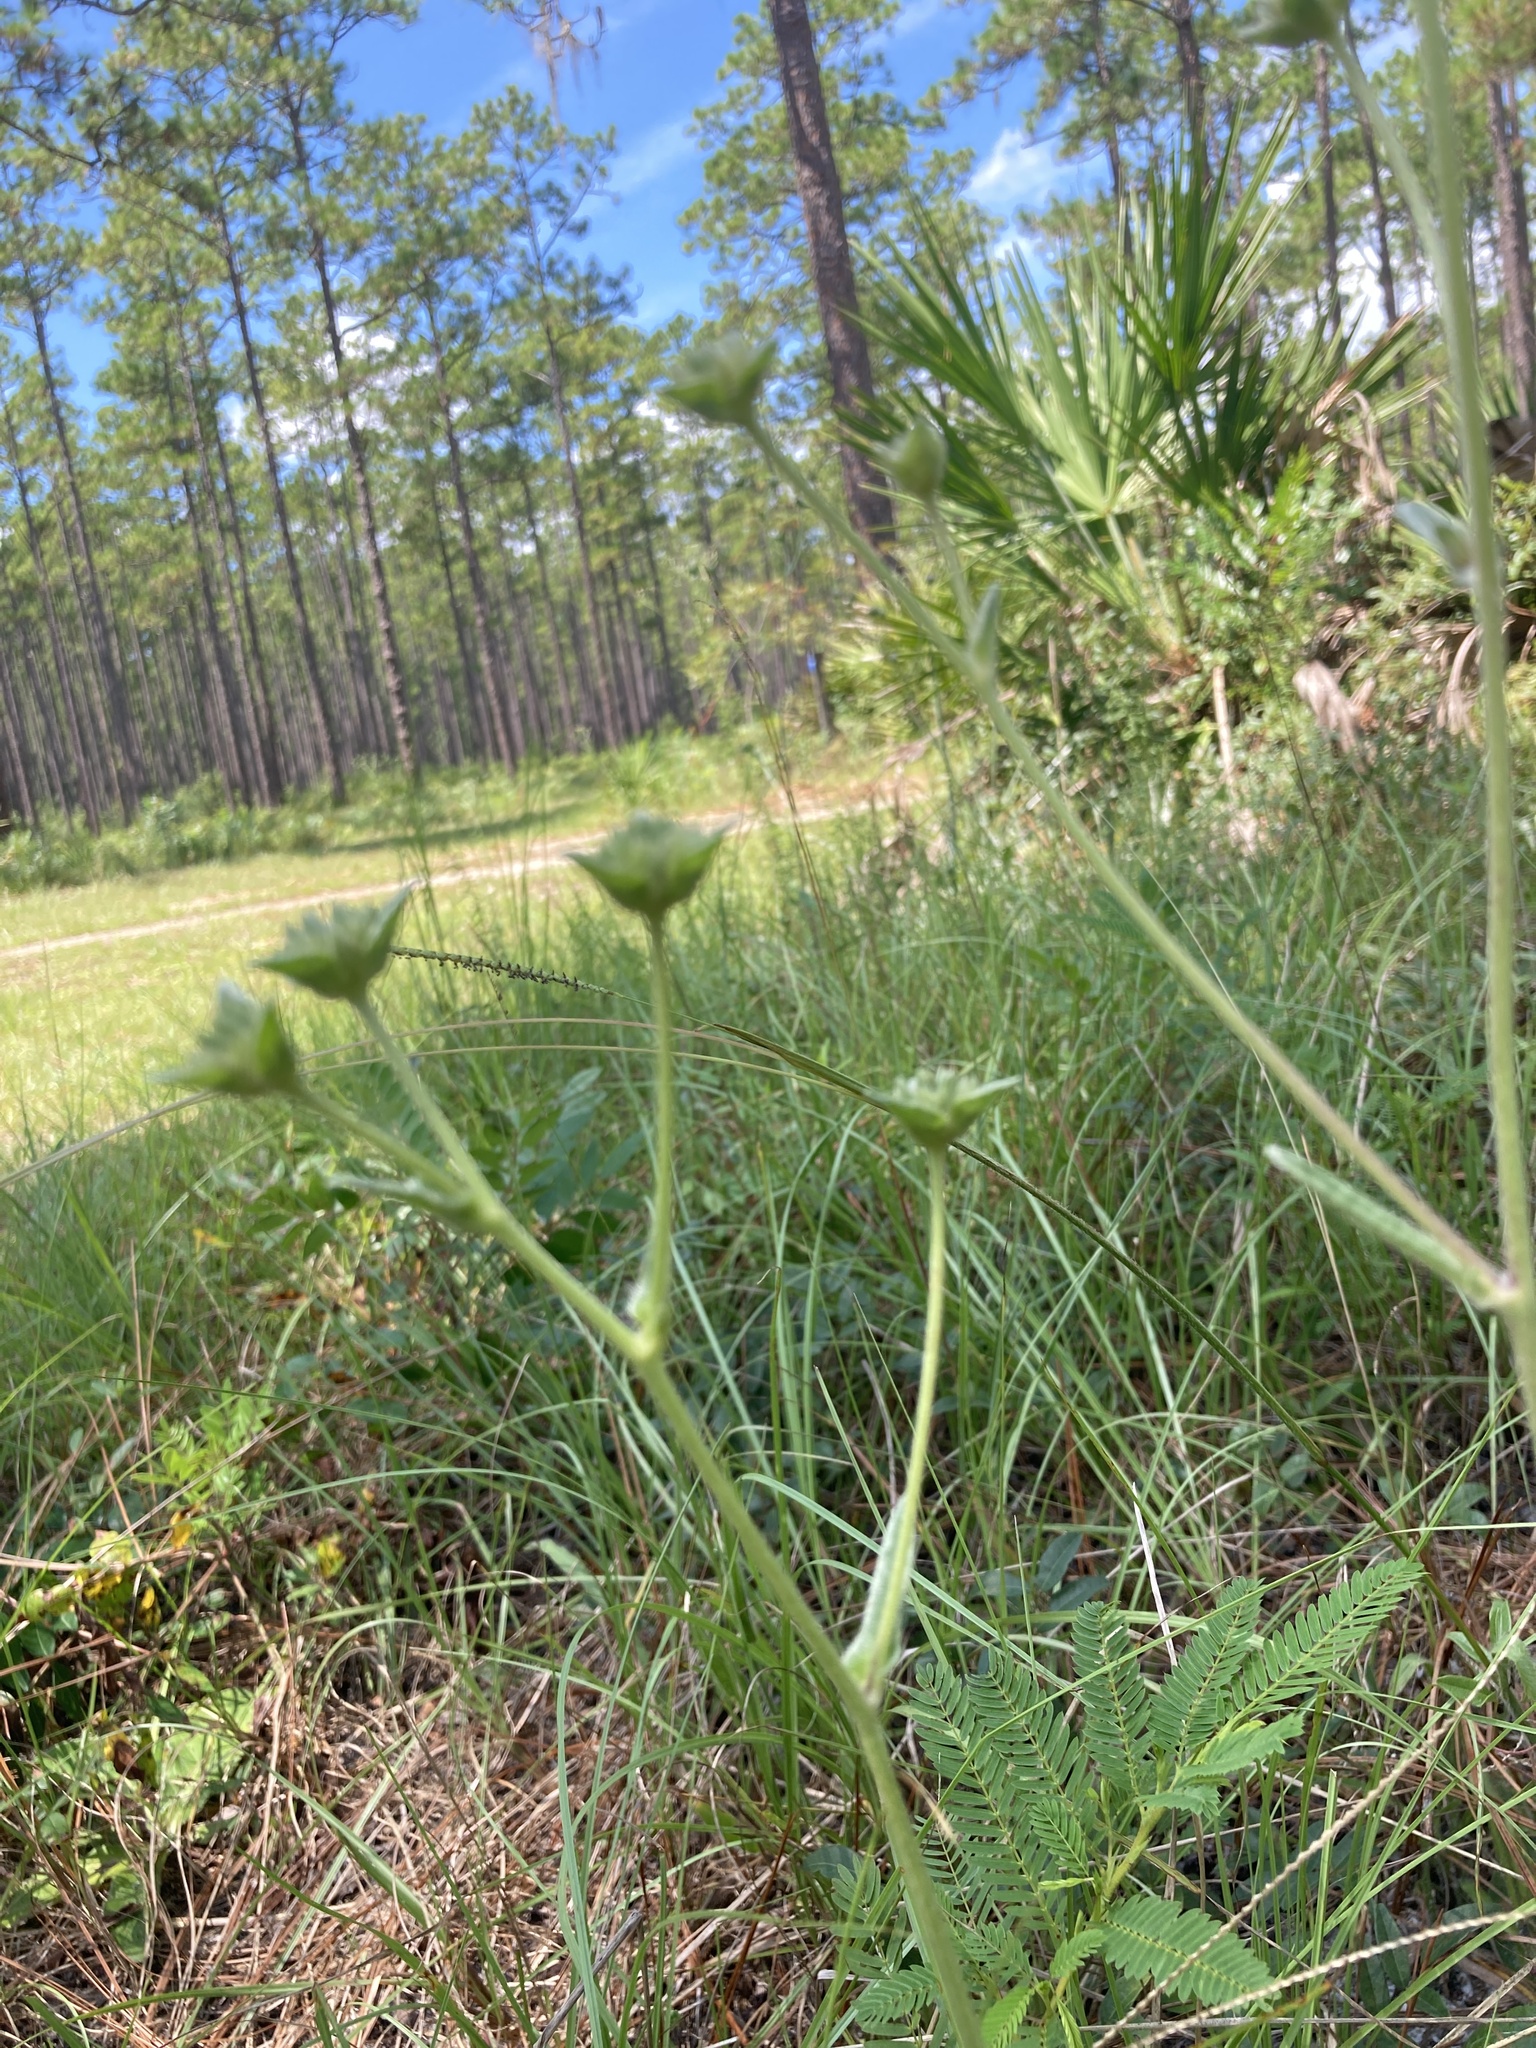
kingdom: Plantae
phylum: Tracheophyta
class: Magnoliopsida
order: Asterales
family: Asteraceae
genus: Elephantopus
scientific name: Elephantopus elatus
